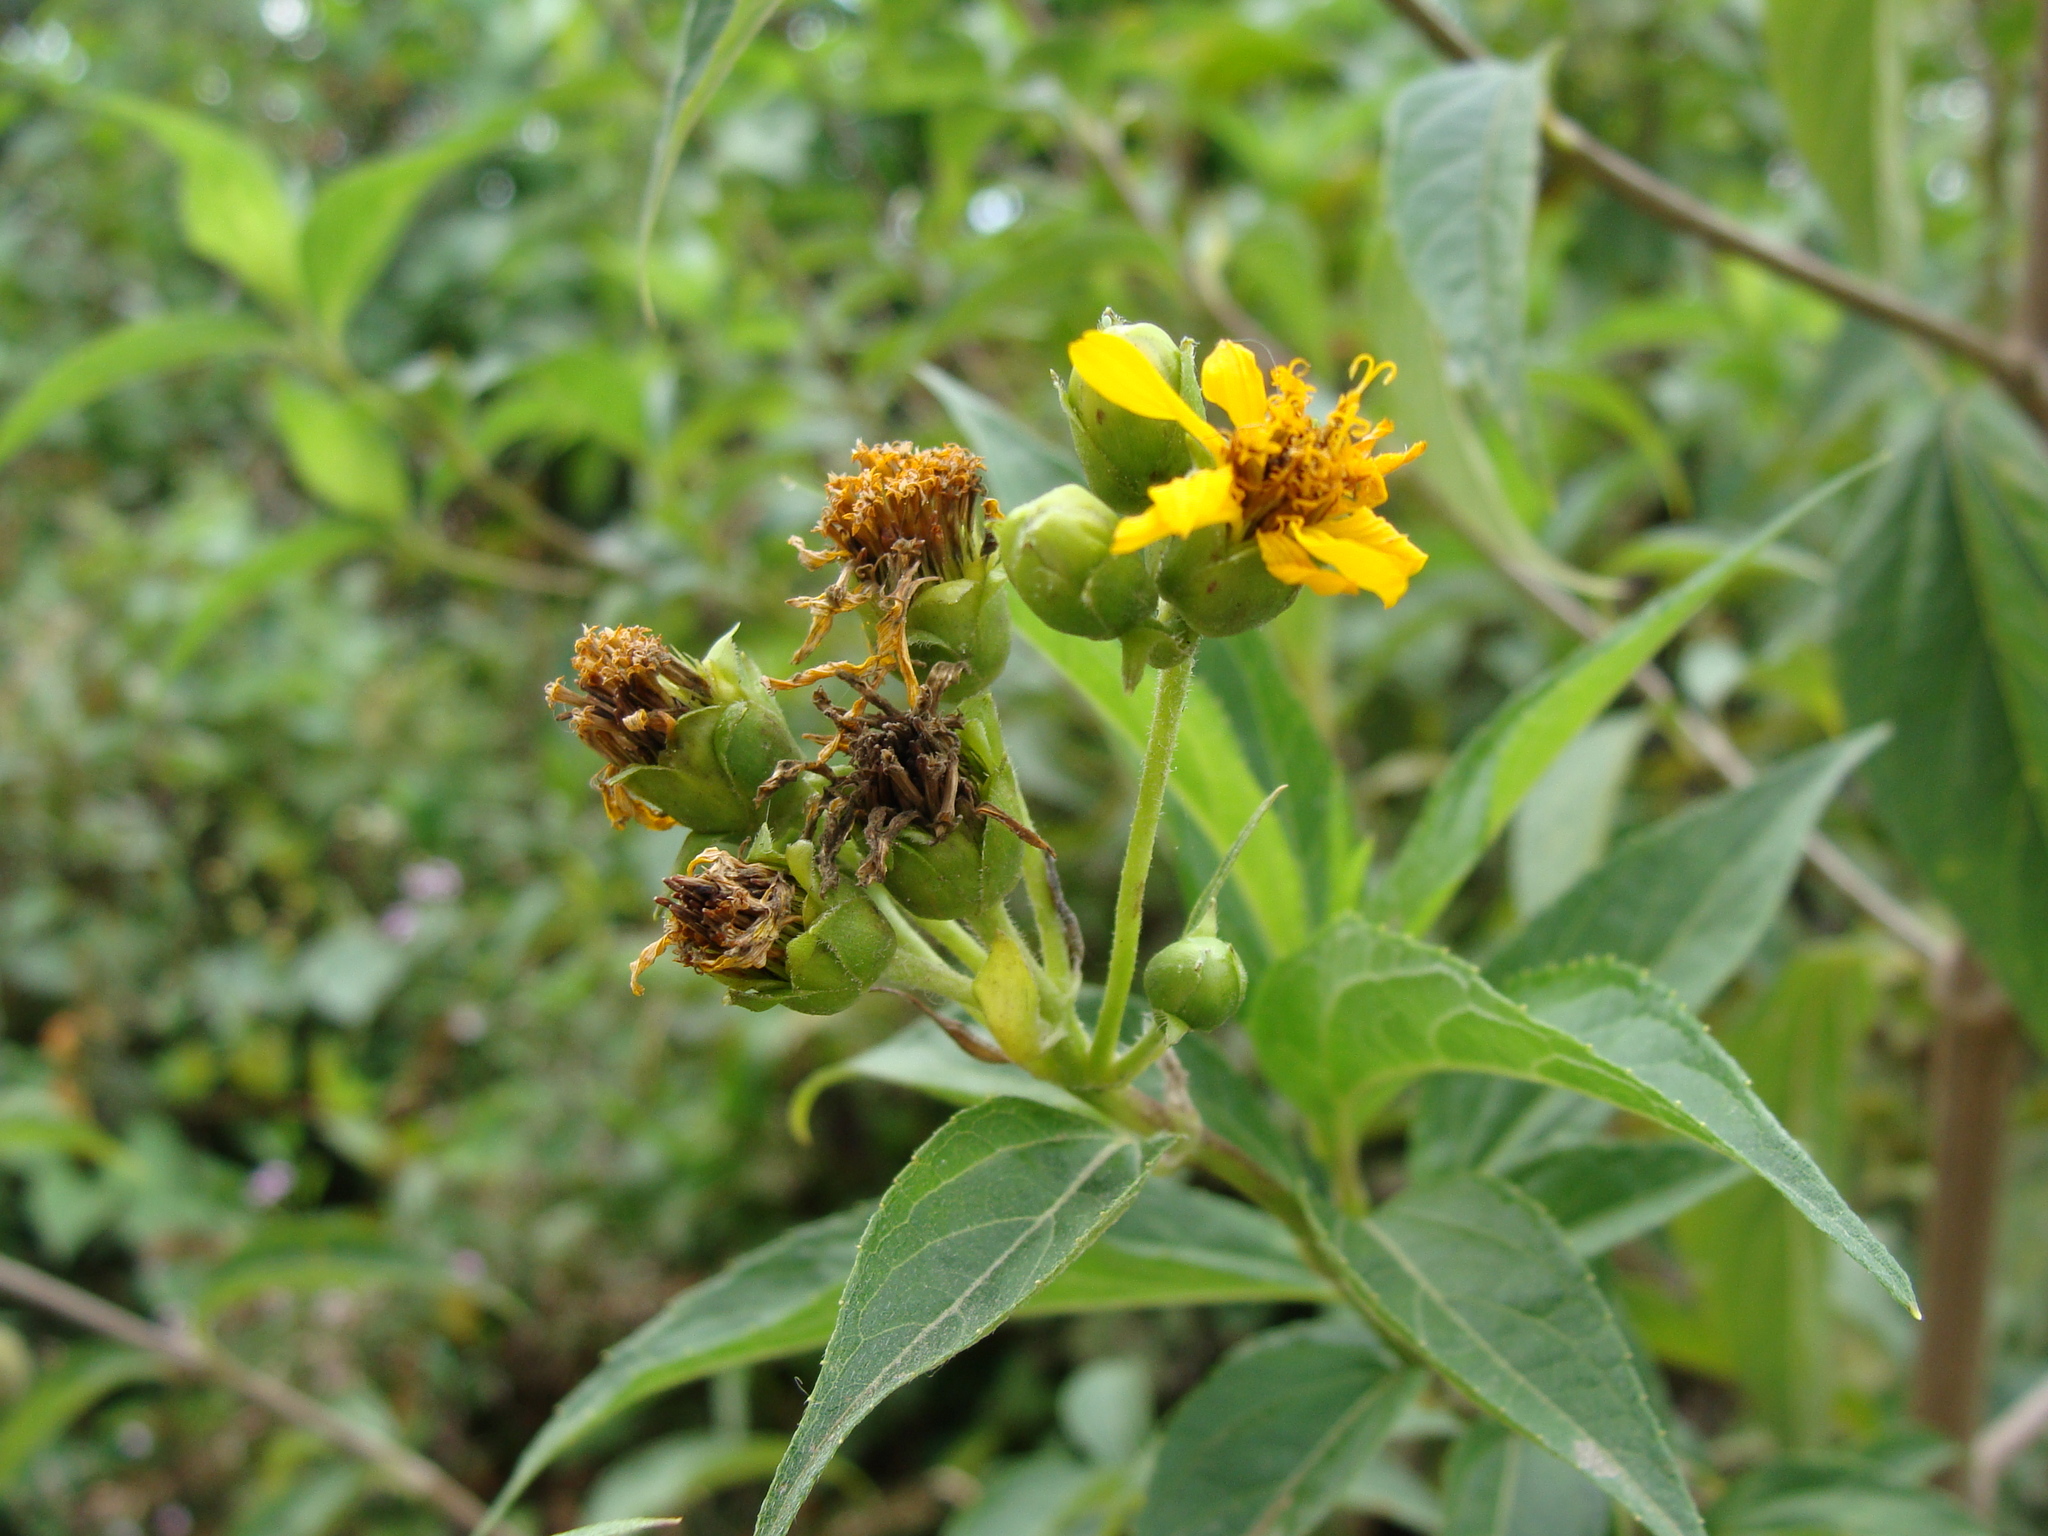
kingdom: Plantae
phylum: Tracheophyta
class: Magnoliopsida
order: Asterales
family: Asteraceae
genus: Perymenium
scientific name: Perymenium ghiesbreghtii
